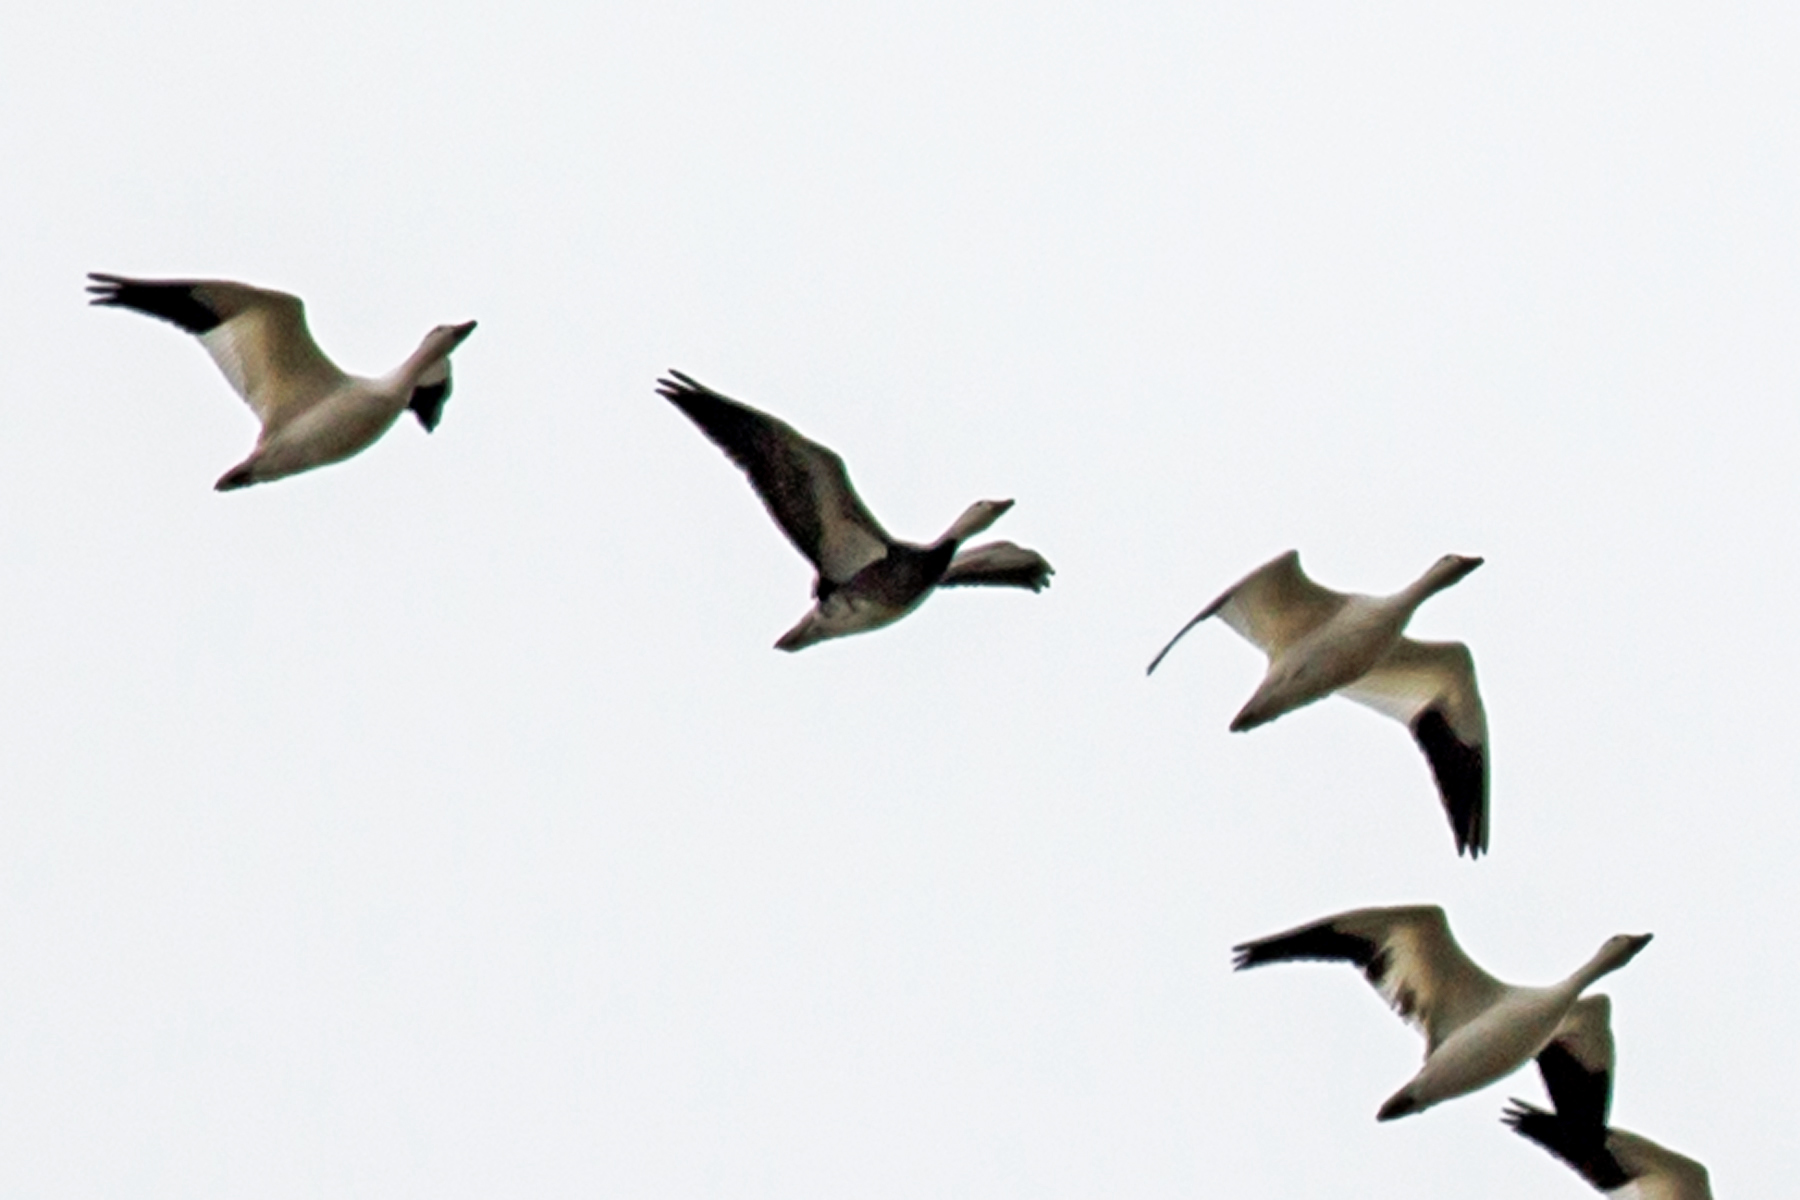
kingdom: Animalia
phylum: Chordata
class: Aves
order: Anseriformes
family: Anatidae
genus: Anser
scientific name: Anser caerulescens
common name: Snow goose
